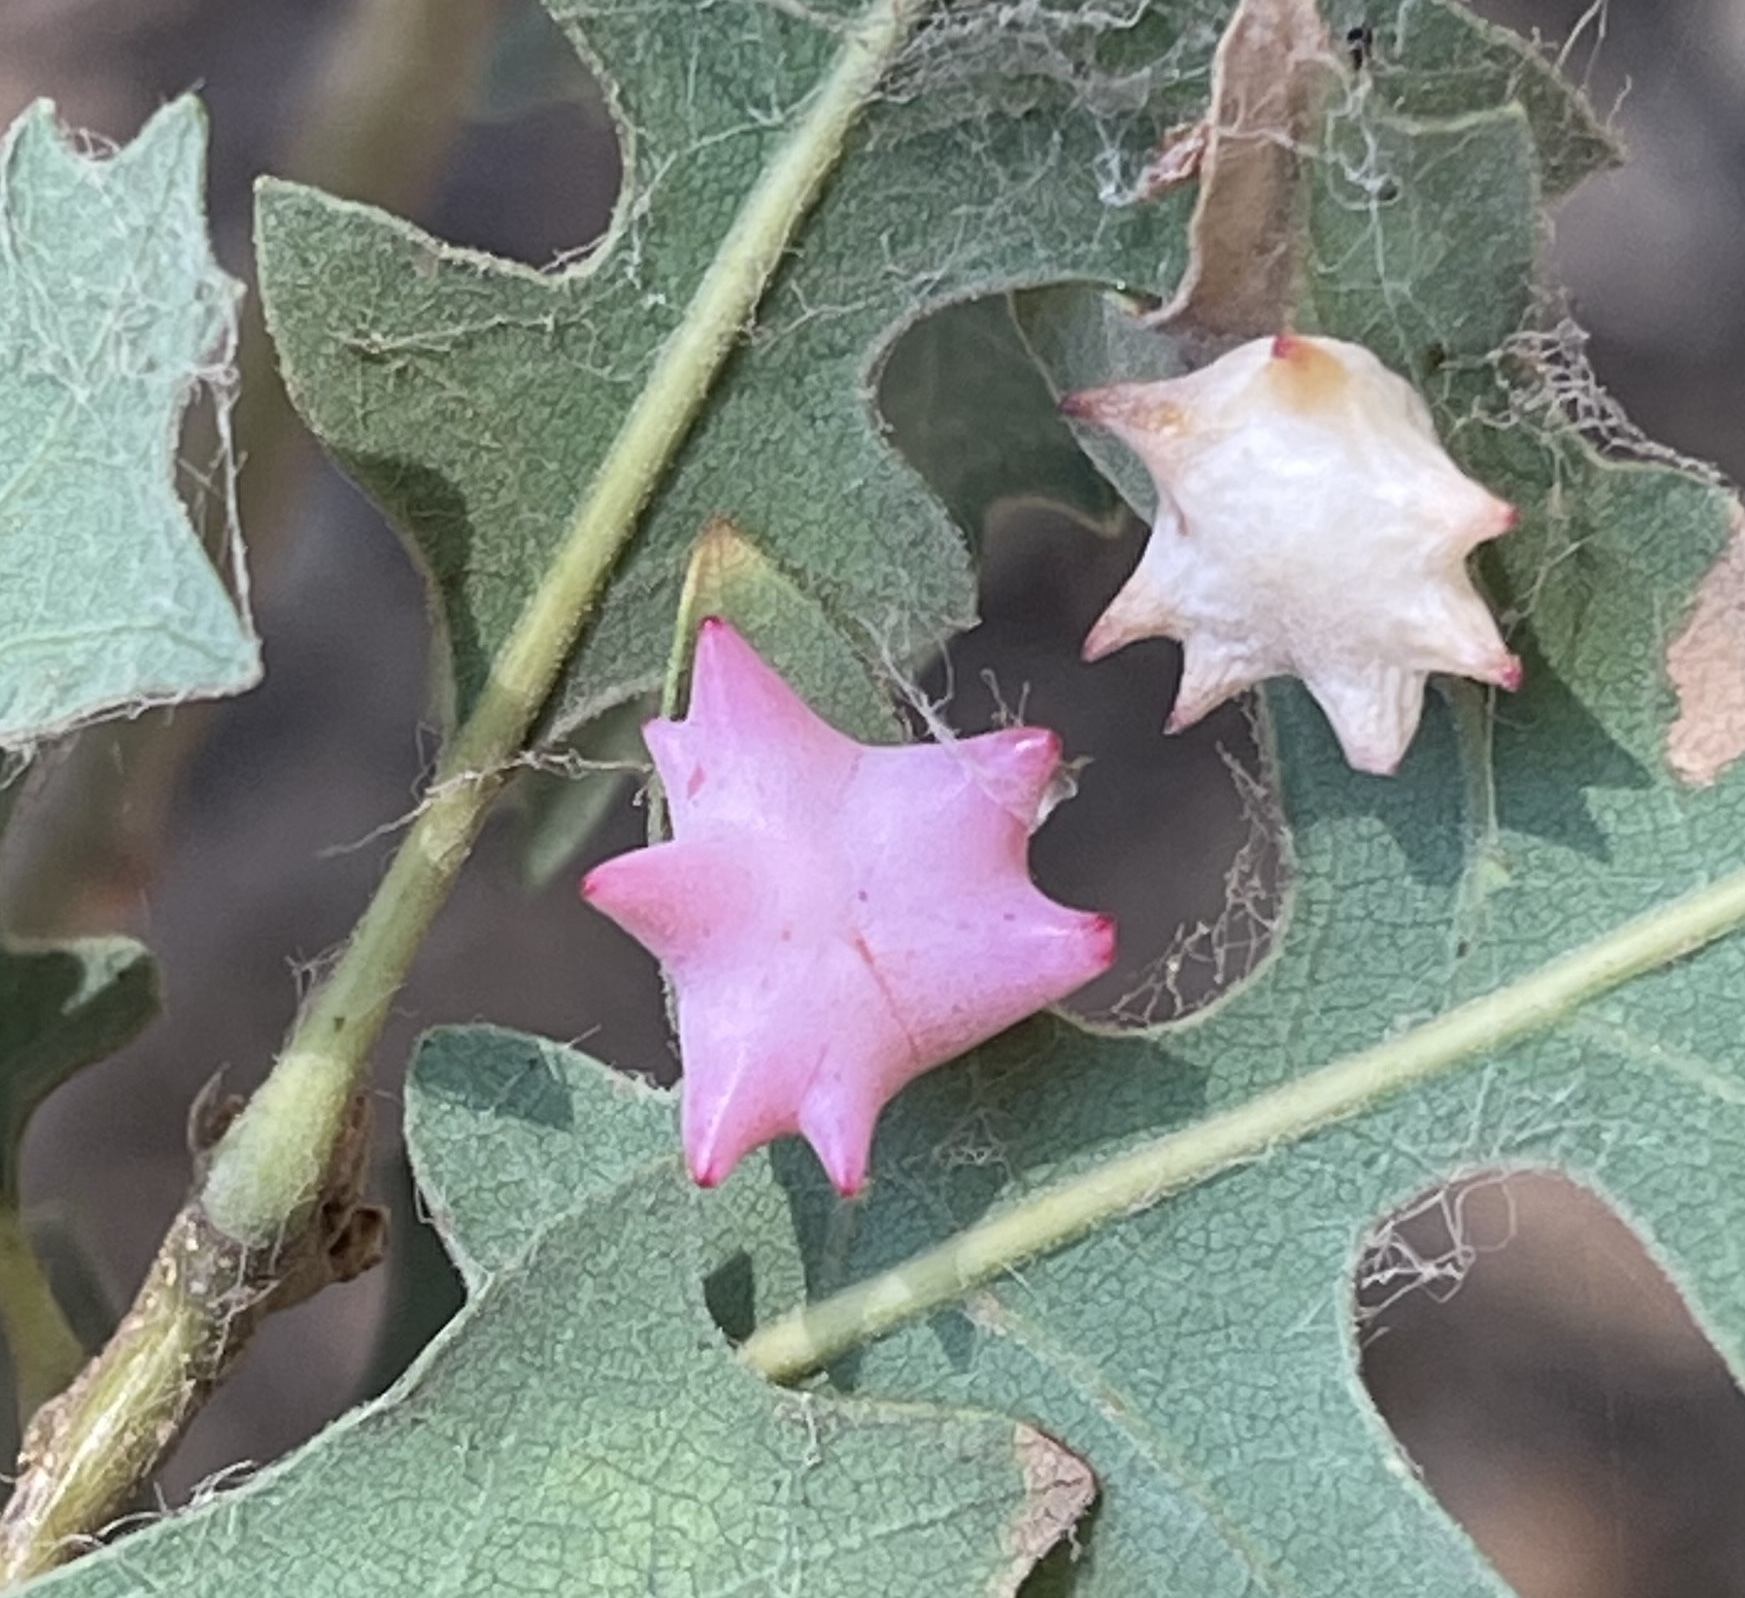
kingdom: Animalia
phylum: Arthropoda
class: Insecta
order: Hymenoptera
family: Cynipidae
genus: Cynips
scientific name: Cynips douglasi
